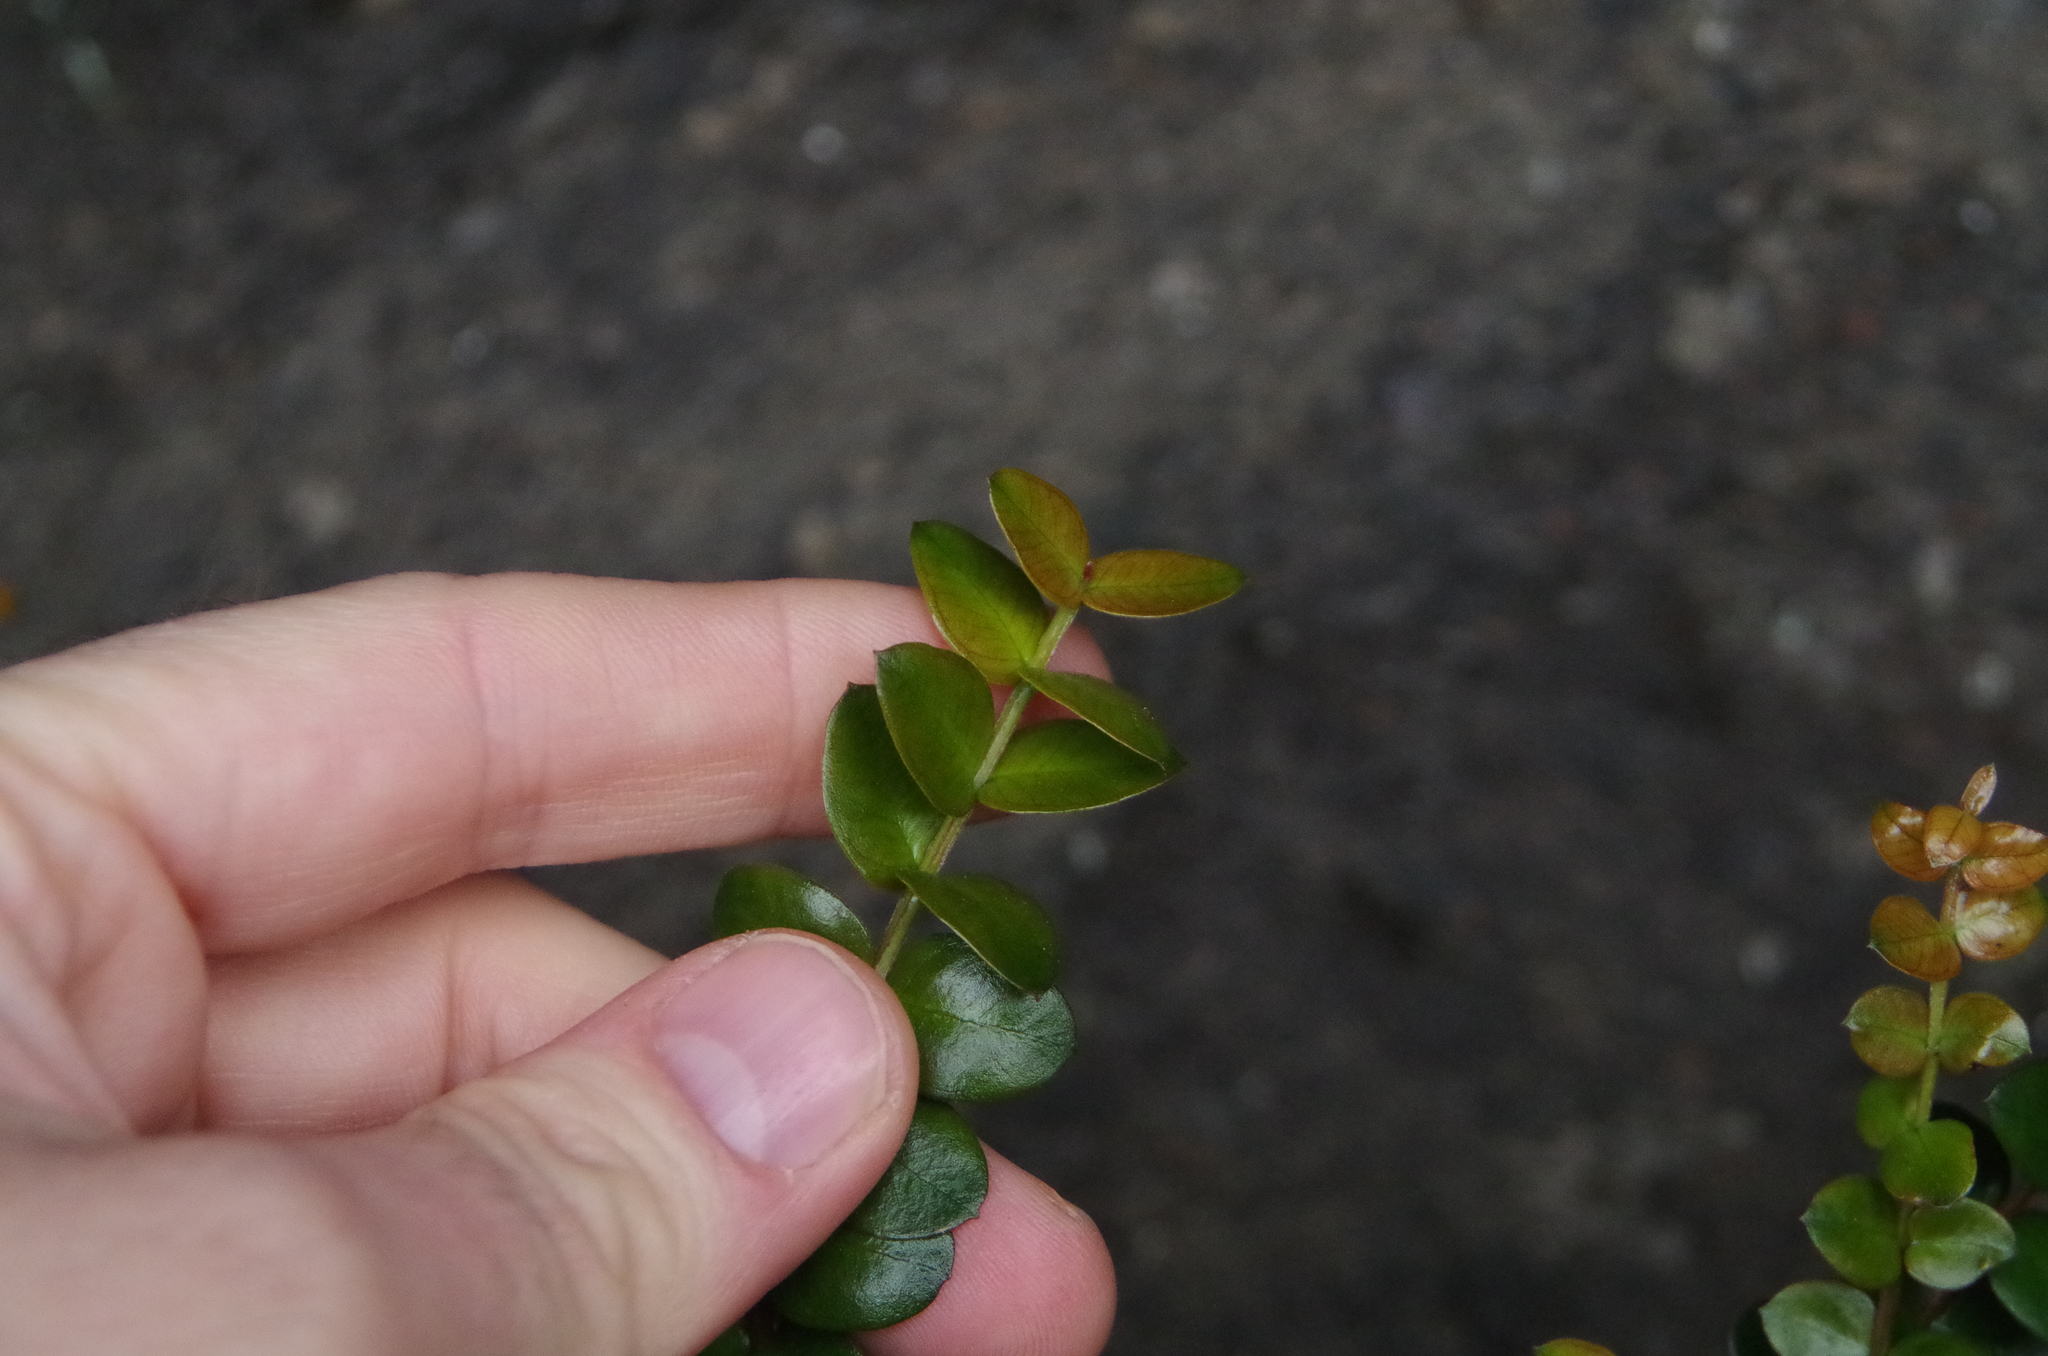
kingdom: Plantae
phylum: Tracheophyta
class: Magnoliopsida
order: Myrtales
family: Myrtaceae
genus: Metrosideros
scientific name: Metrosideros diffusa
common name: Small ratavine
